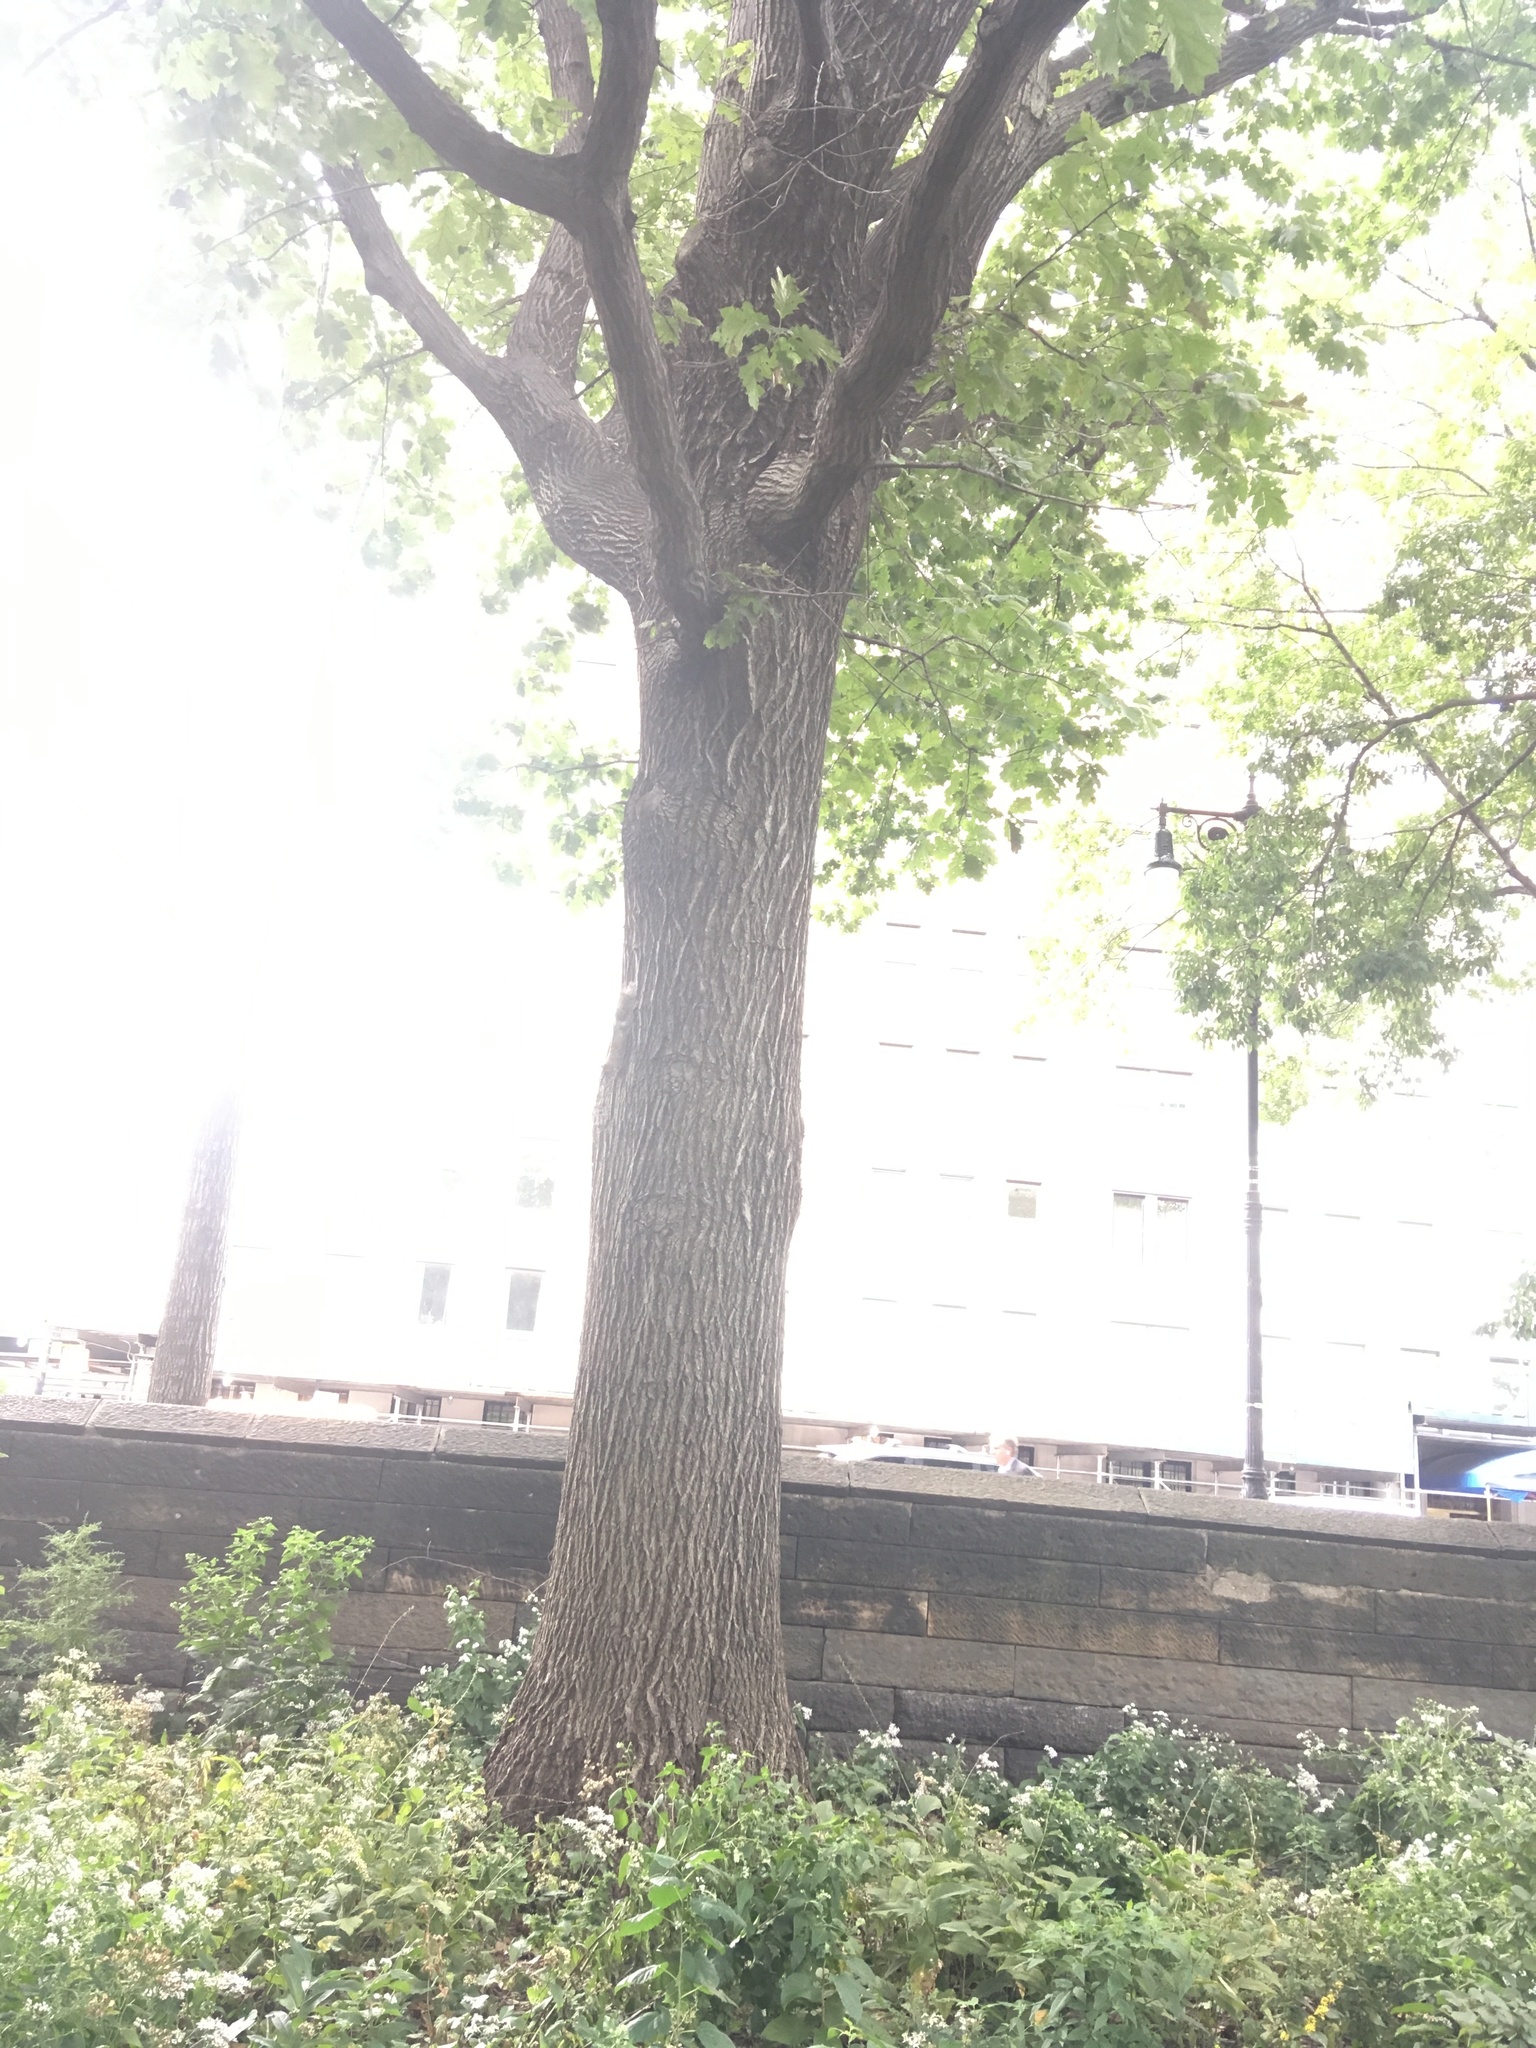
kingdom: Plantae
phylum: Tracheophyta
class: Magnoliopsida
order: Fagales
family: Fagaceae
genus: Quercus
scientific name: Quercus rubra
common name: Red oak
